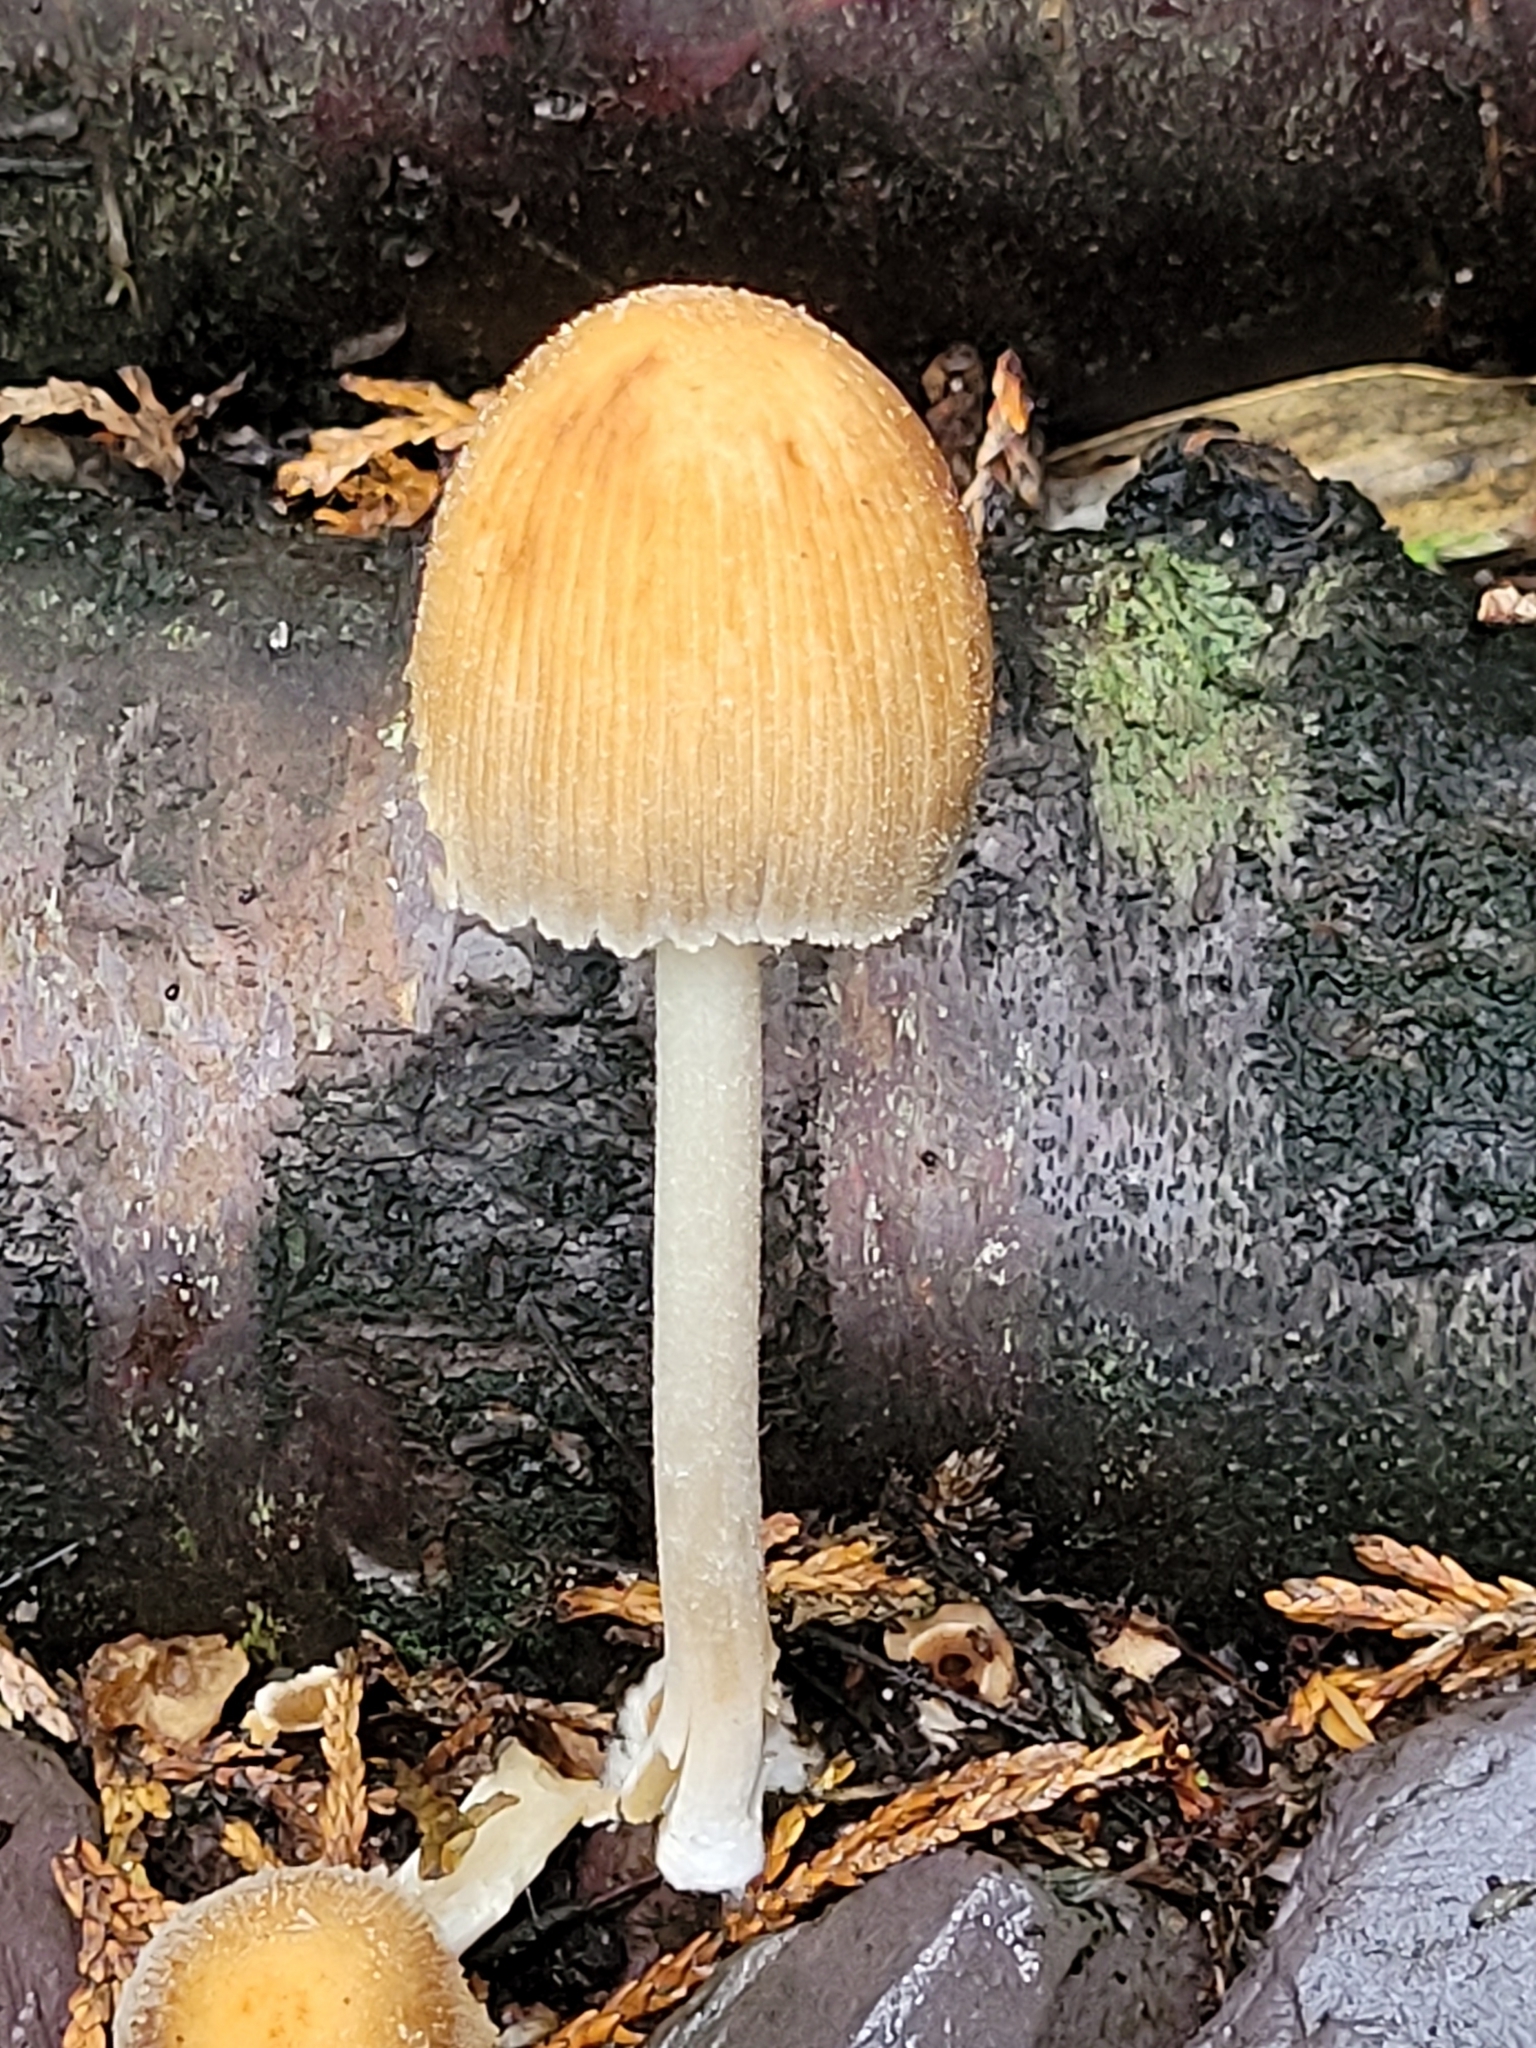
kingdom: Fungi
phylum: Basidiomycota
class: Agaricomycetes
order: Agaricales
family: Psathyrellaceae
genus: Coprinellus
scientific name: Coprinellus micaceus
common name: Glistening ink-cap
